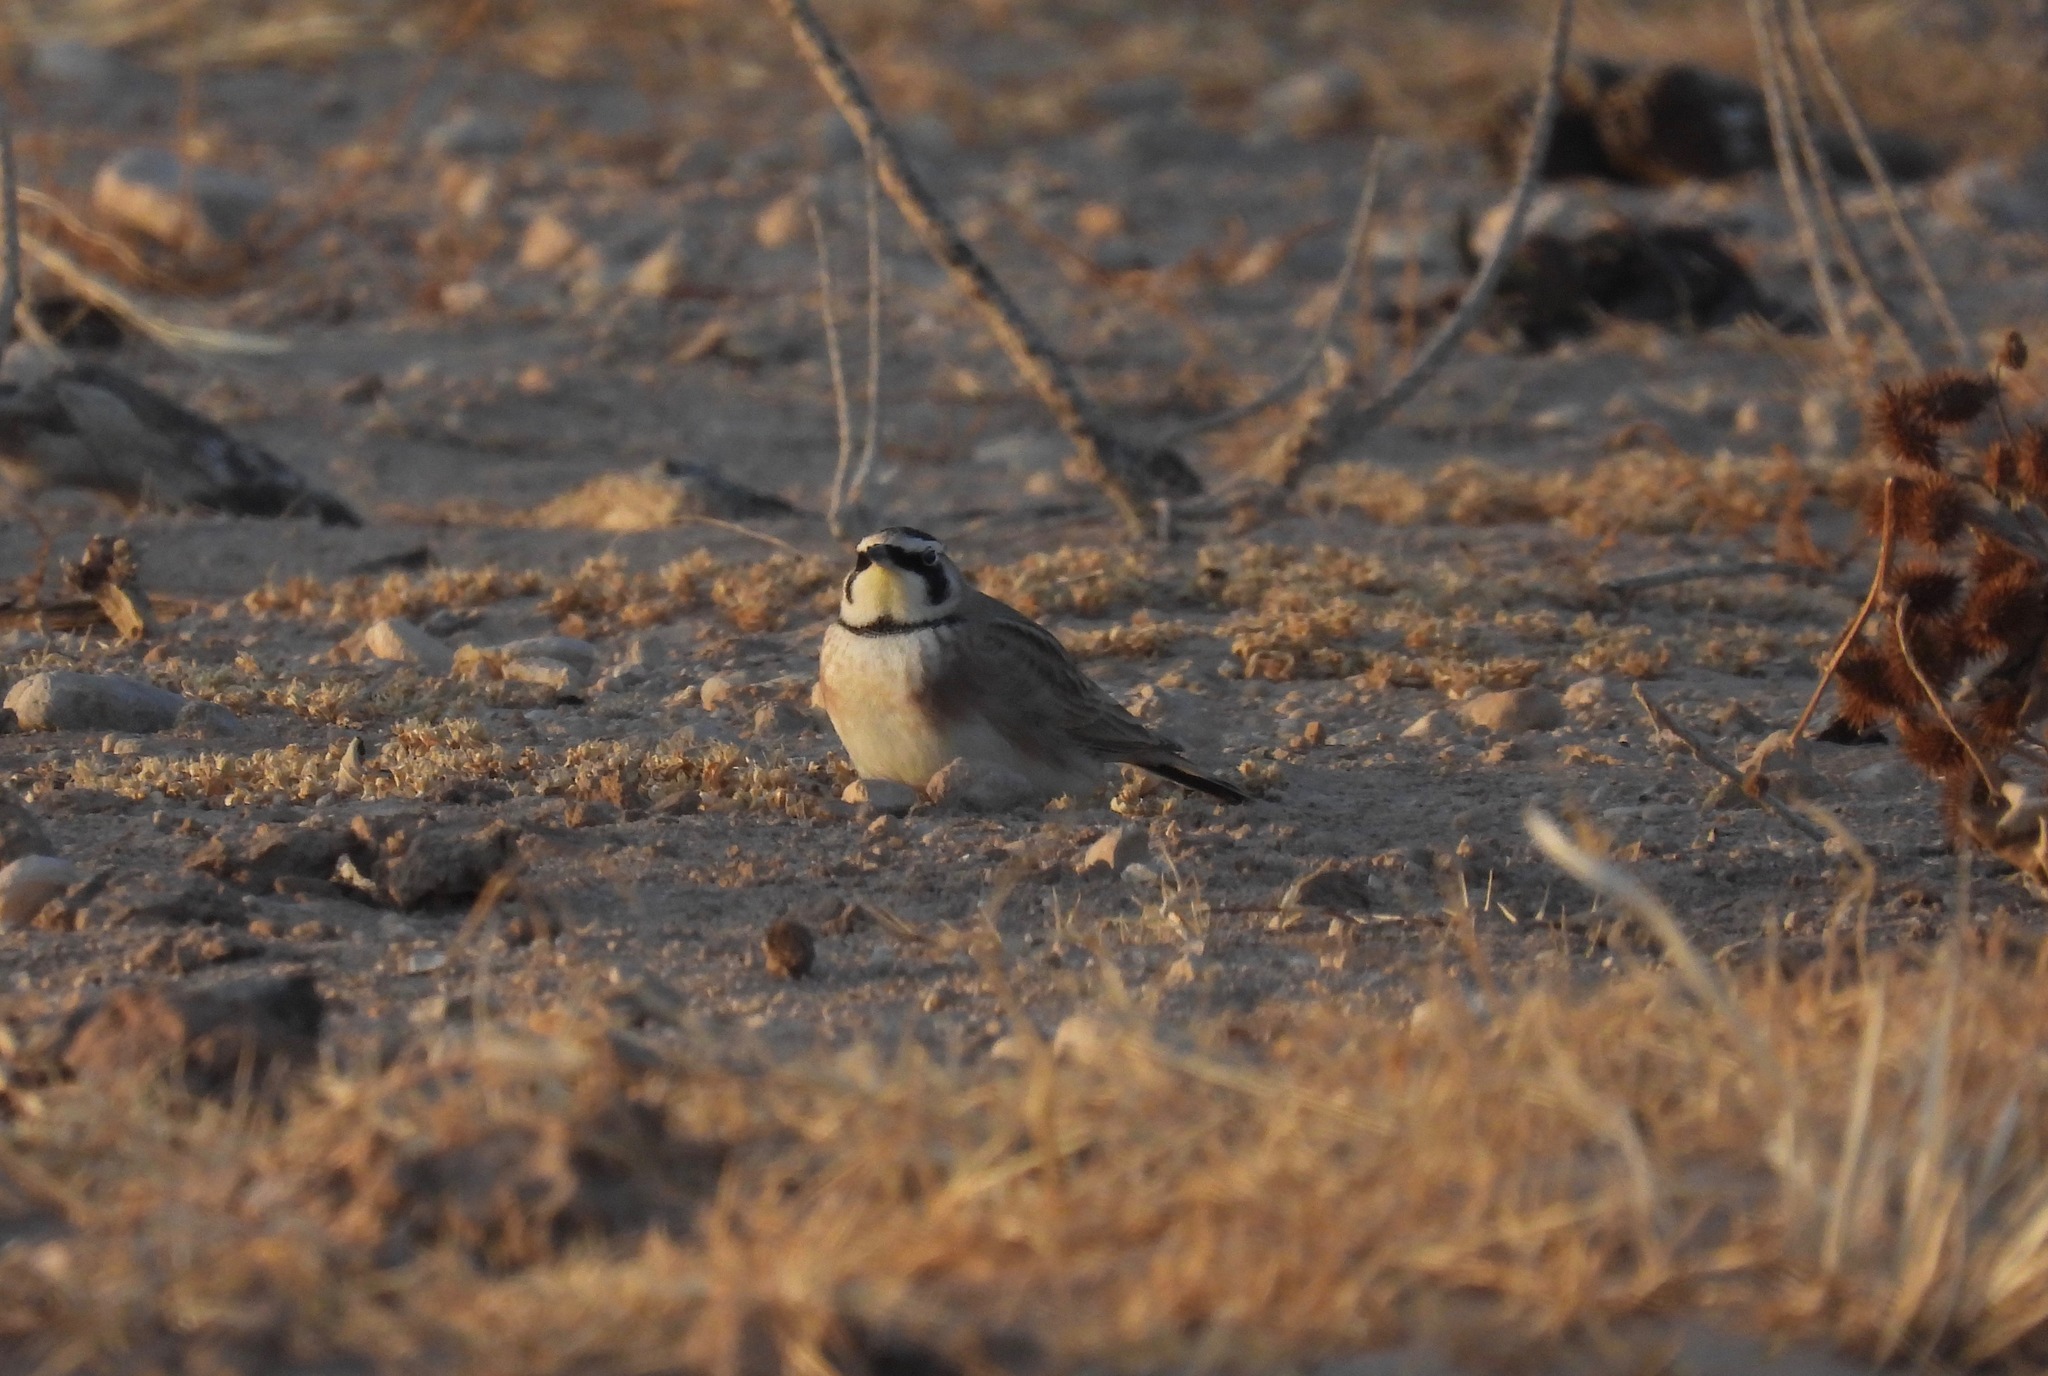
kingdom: Animalia
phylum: Chordata
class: Aves
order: Passeriformes
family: Alaudidae
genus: Eremophila
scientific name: Eremophila alpestris
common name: Horned lark
